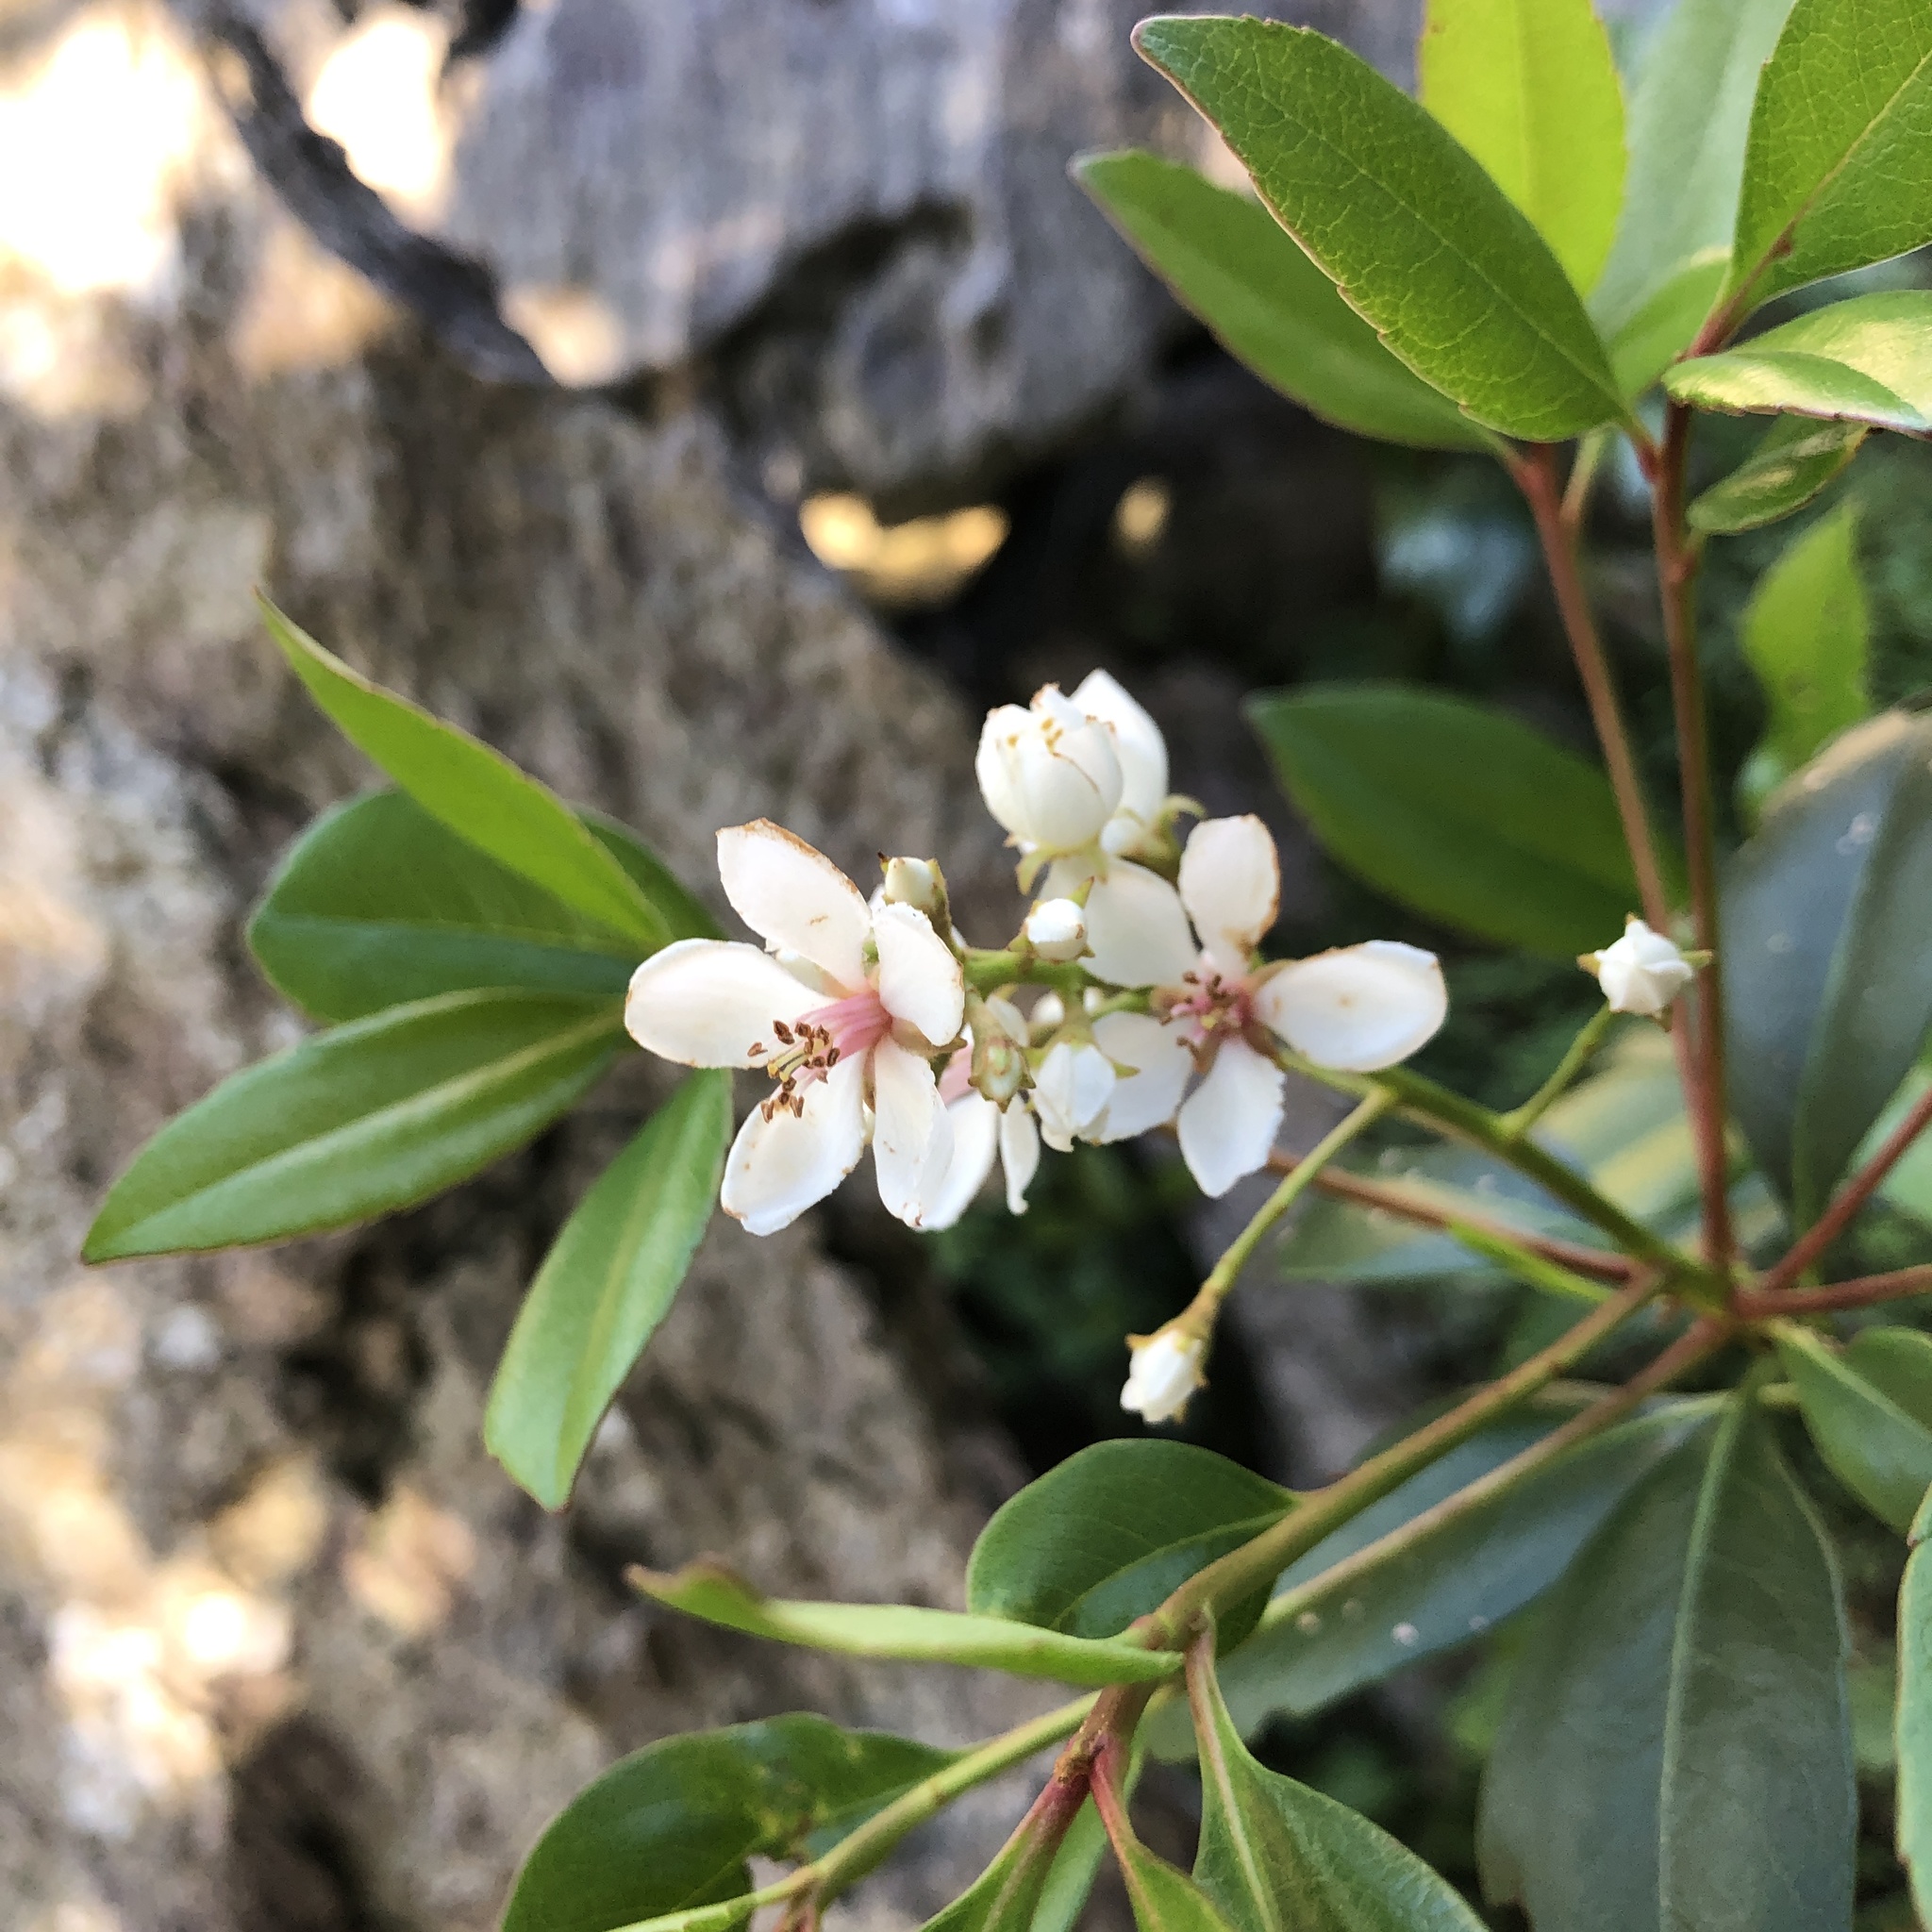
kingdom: Plantae
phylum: Tracheophyta
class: Magnoliopsida
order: Rosales
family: Rosaceae
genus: Rhaphiolepis
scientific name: Rhaphiolepis umbellata
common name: Yedda-hawthorn
